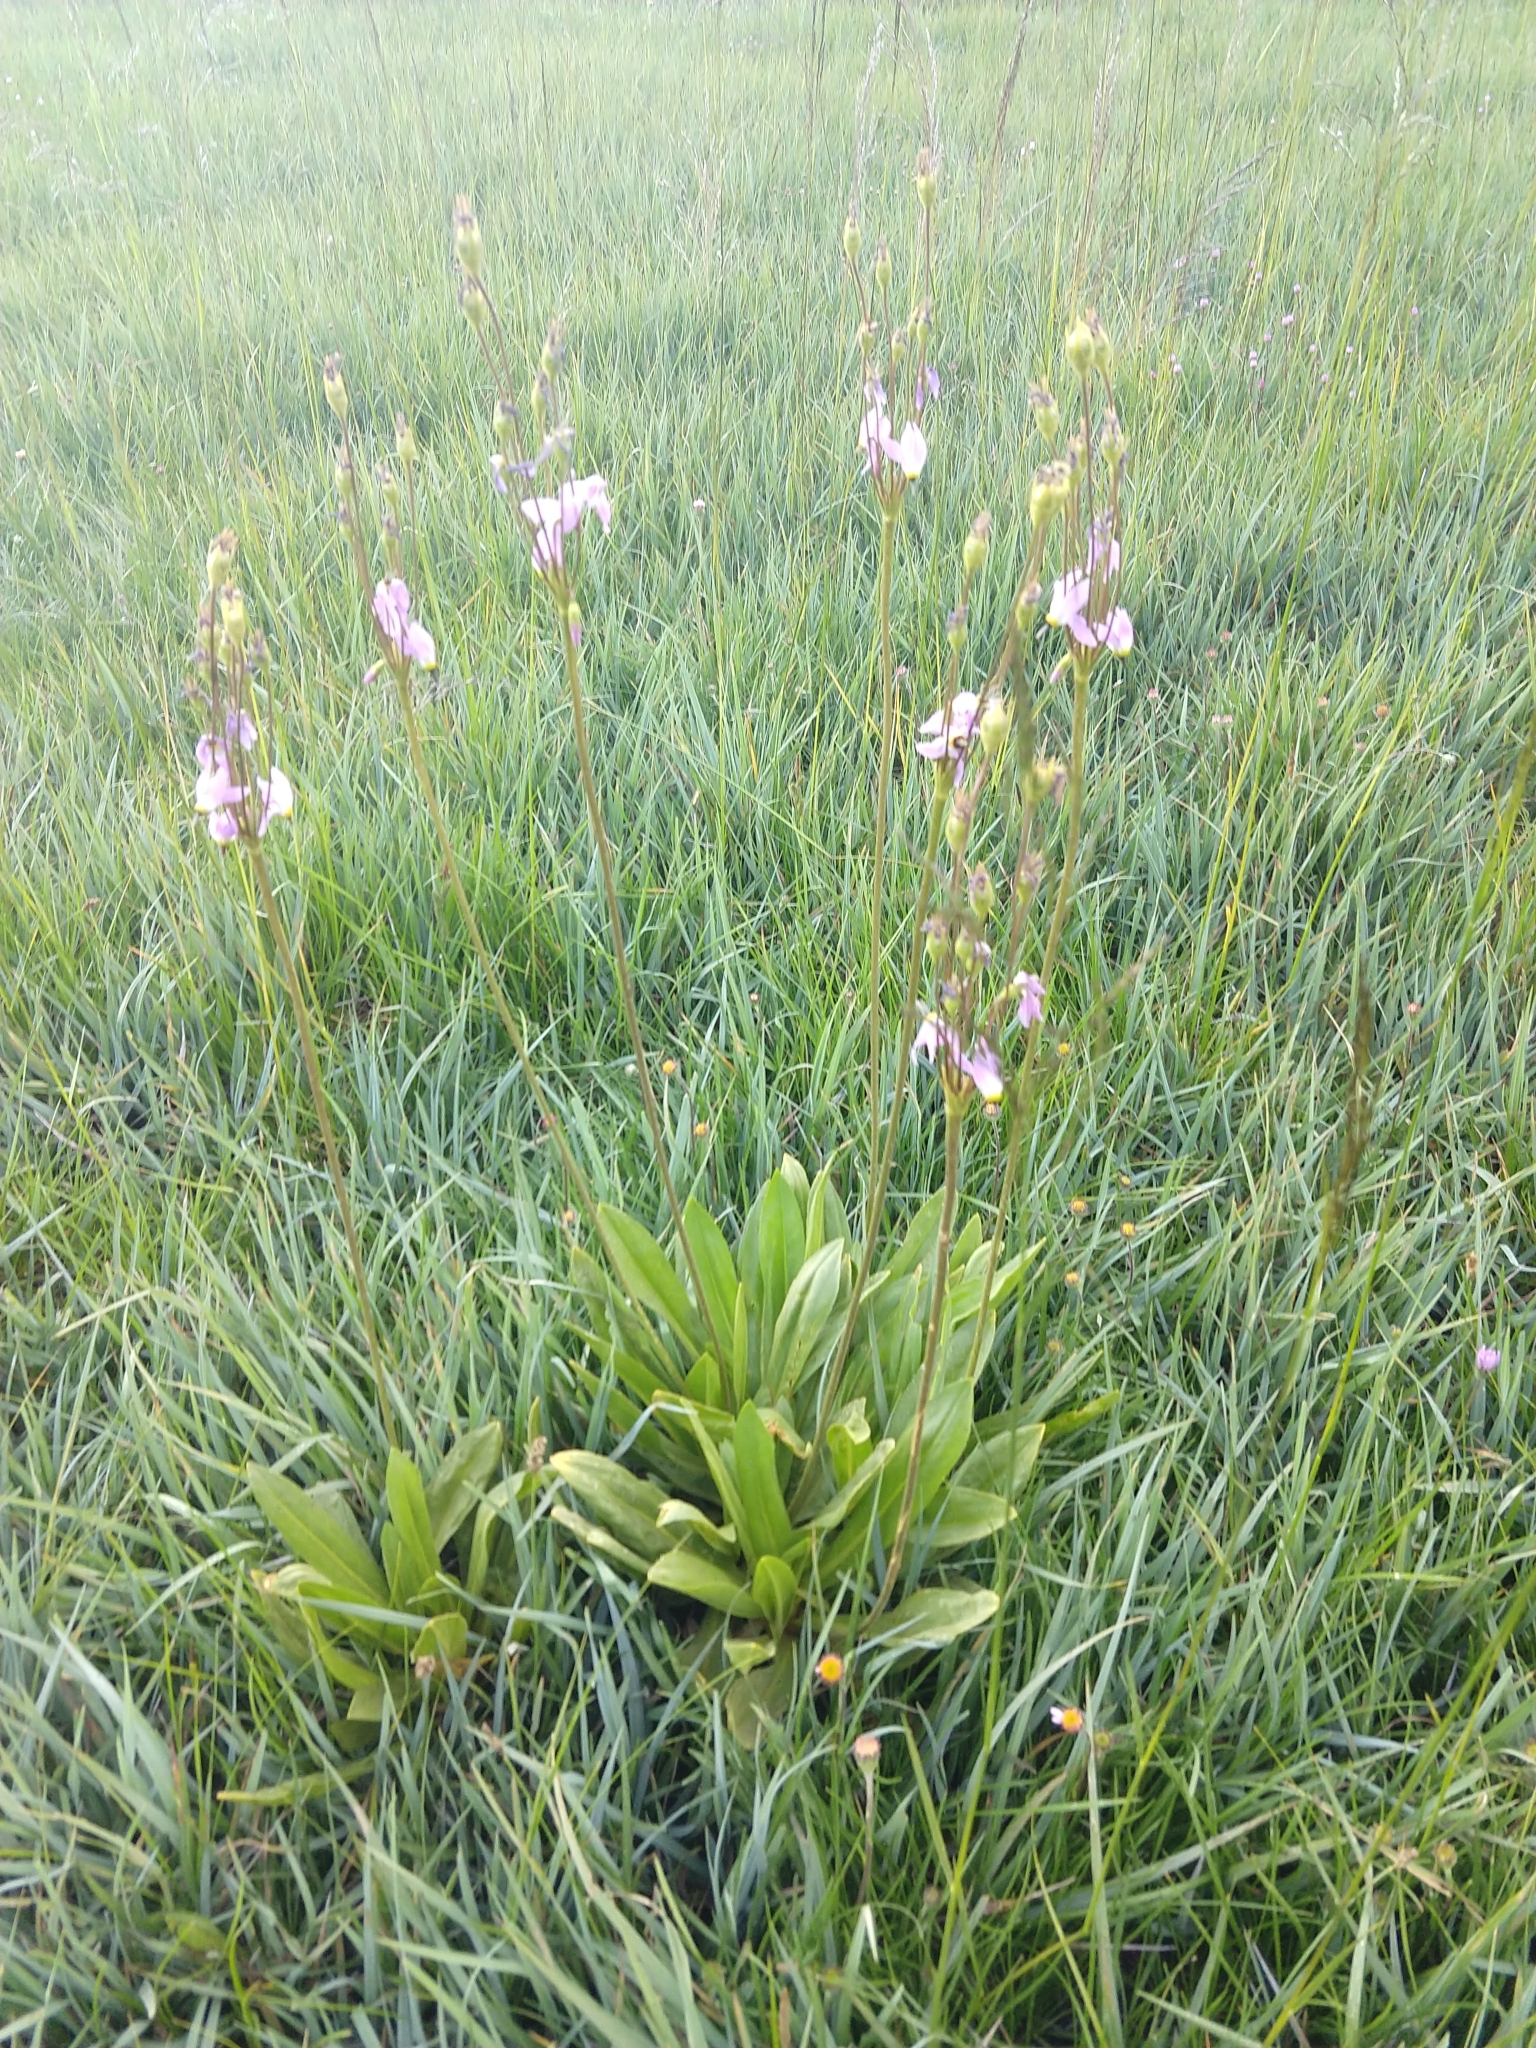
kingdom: Plantae
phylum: Tracheophyta
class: Magnoliopsida
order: Ericales
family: Primulaceae
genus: Dodecatheon
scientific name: Dodecatheon
